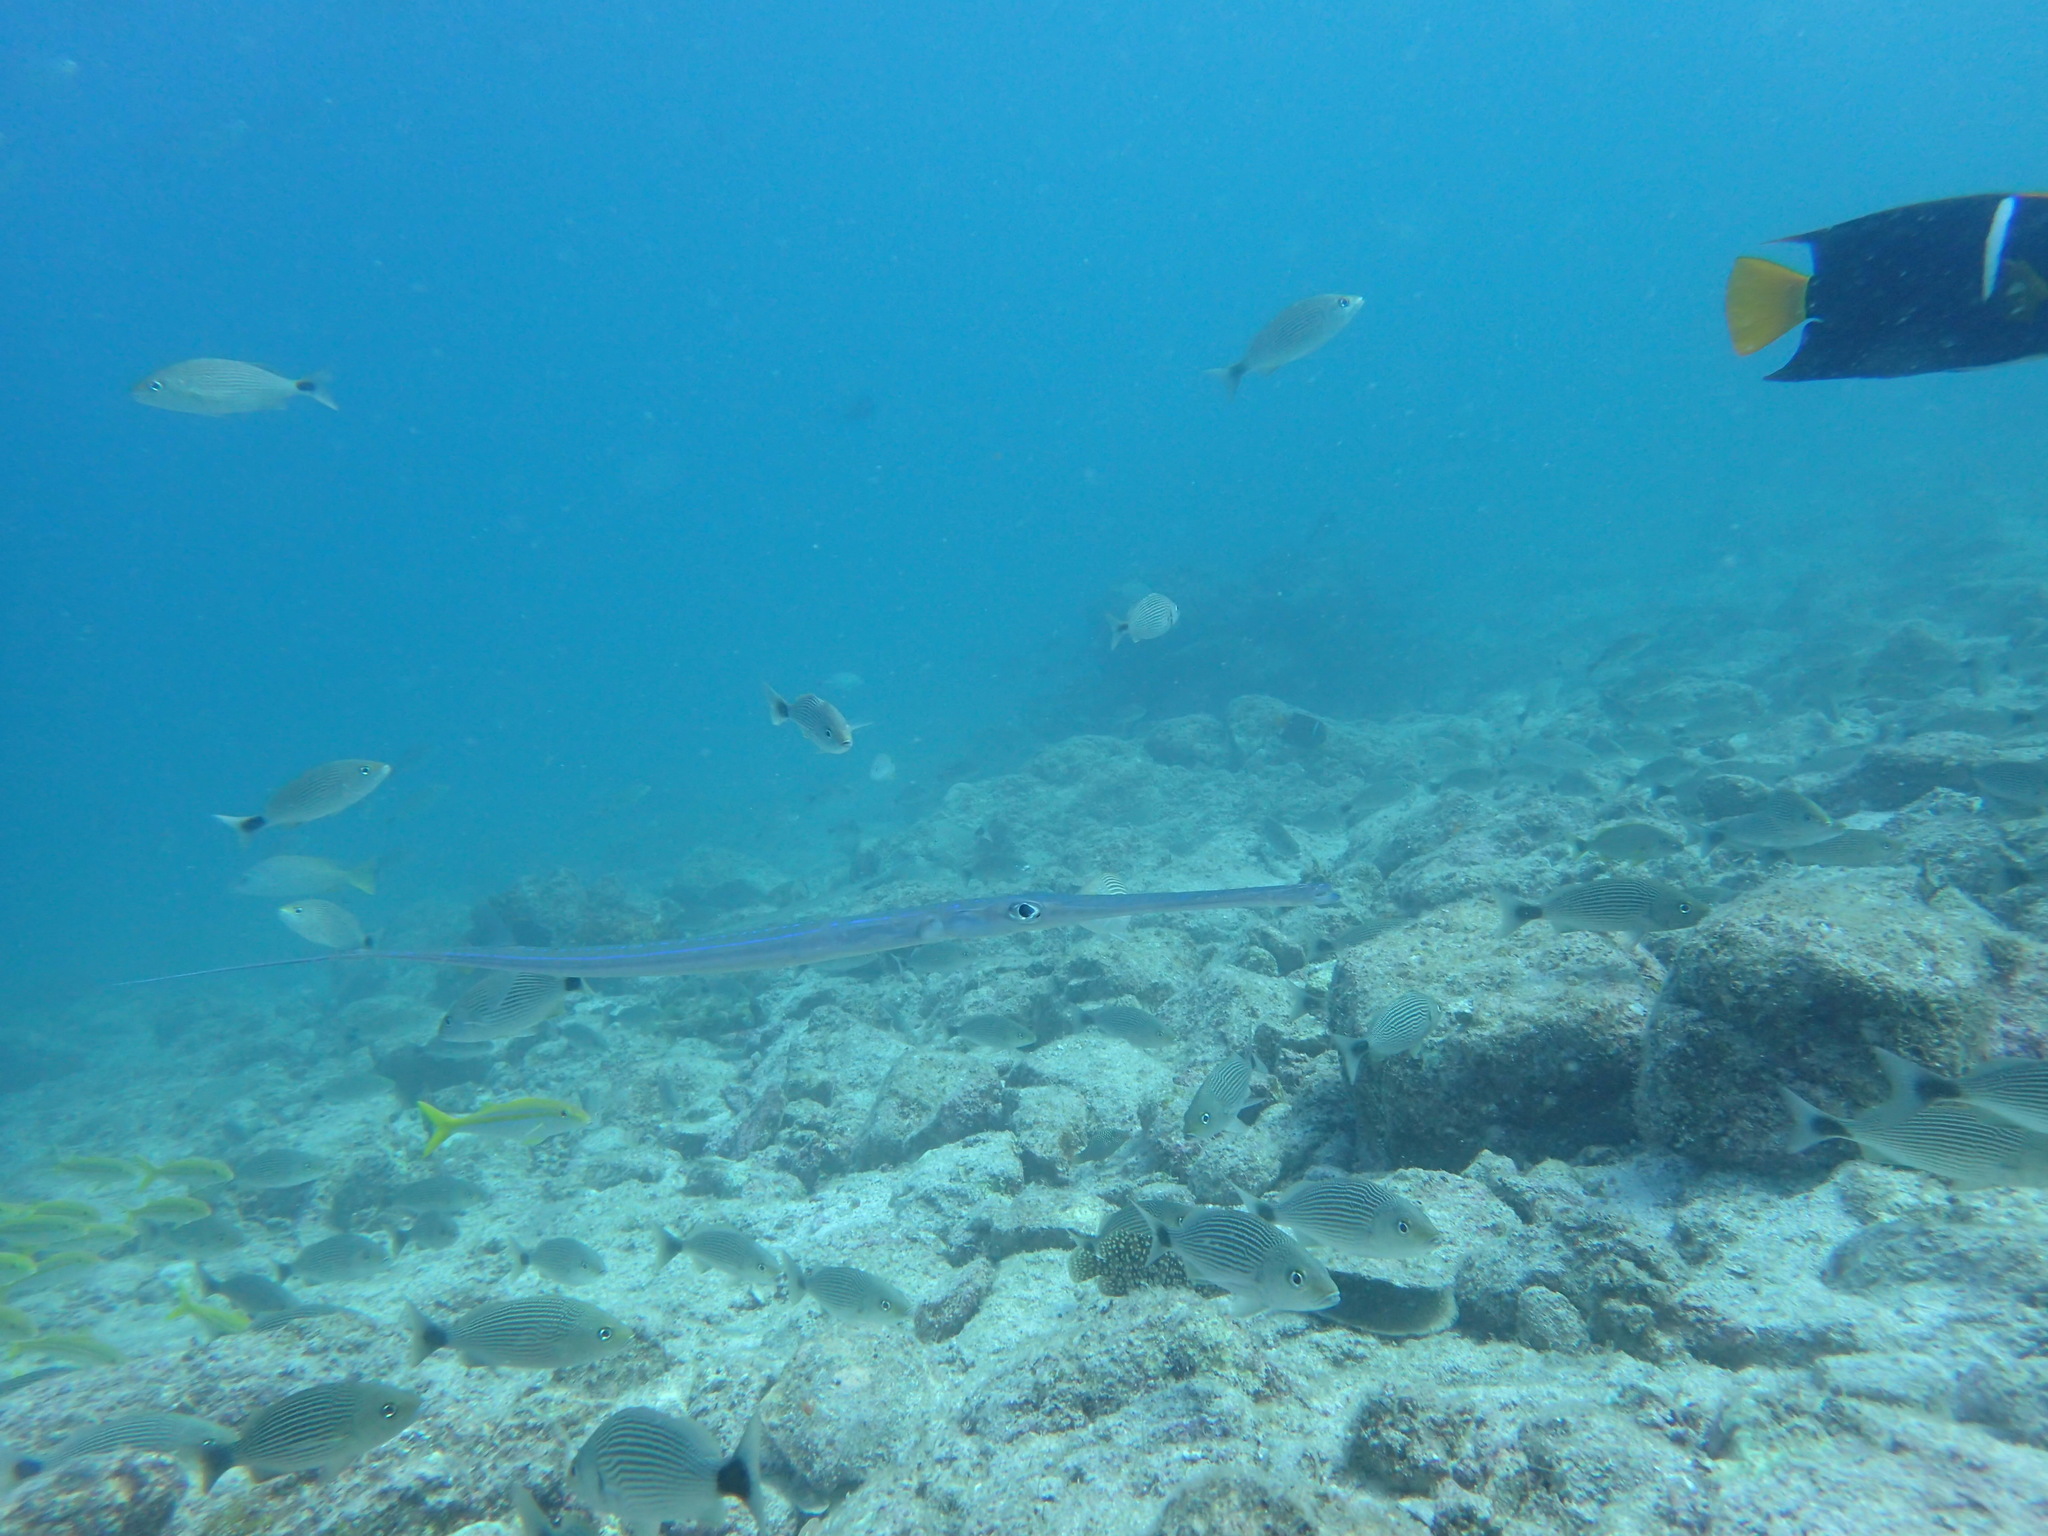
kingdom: Animalia
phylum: Chordata
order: Syngnathiformes
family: Fistulariidae
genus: Fistularia
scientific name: Fistularia commersonii
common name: Bluespotted cornetfish
